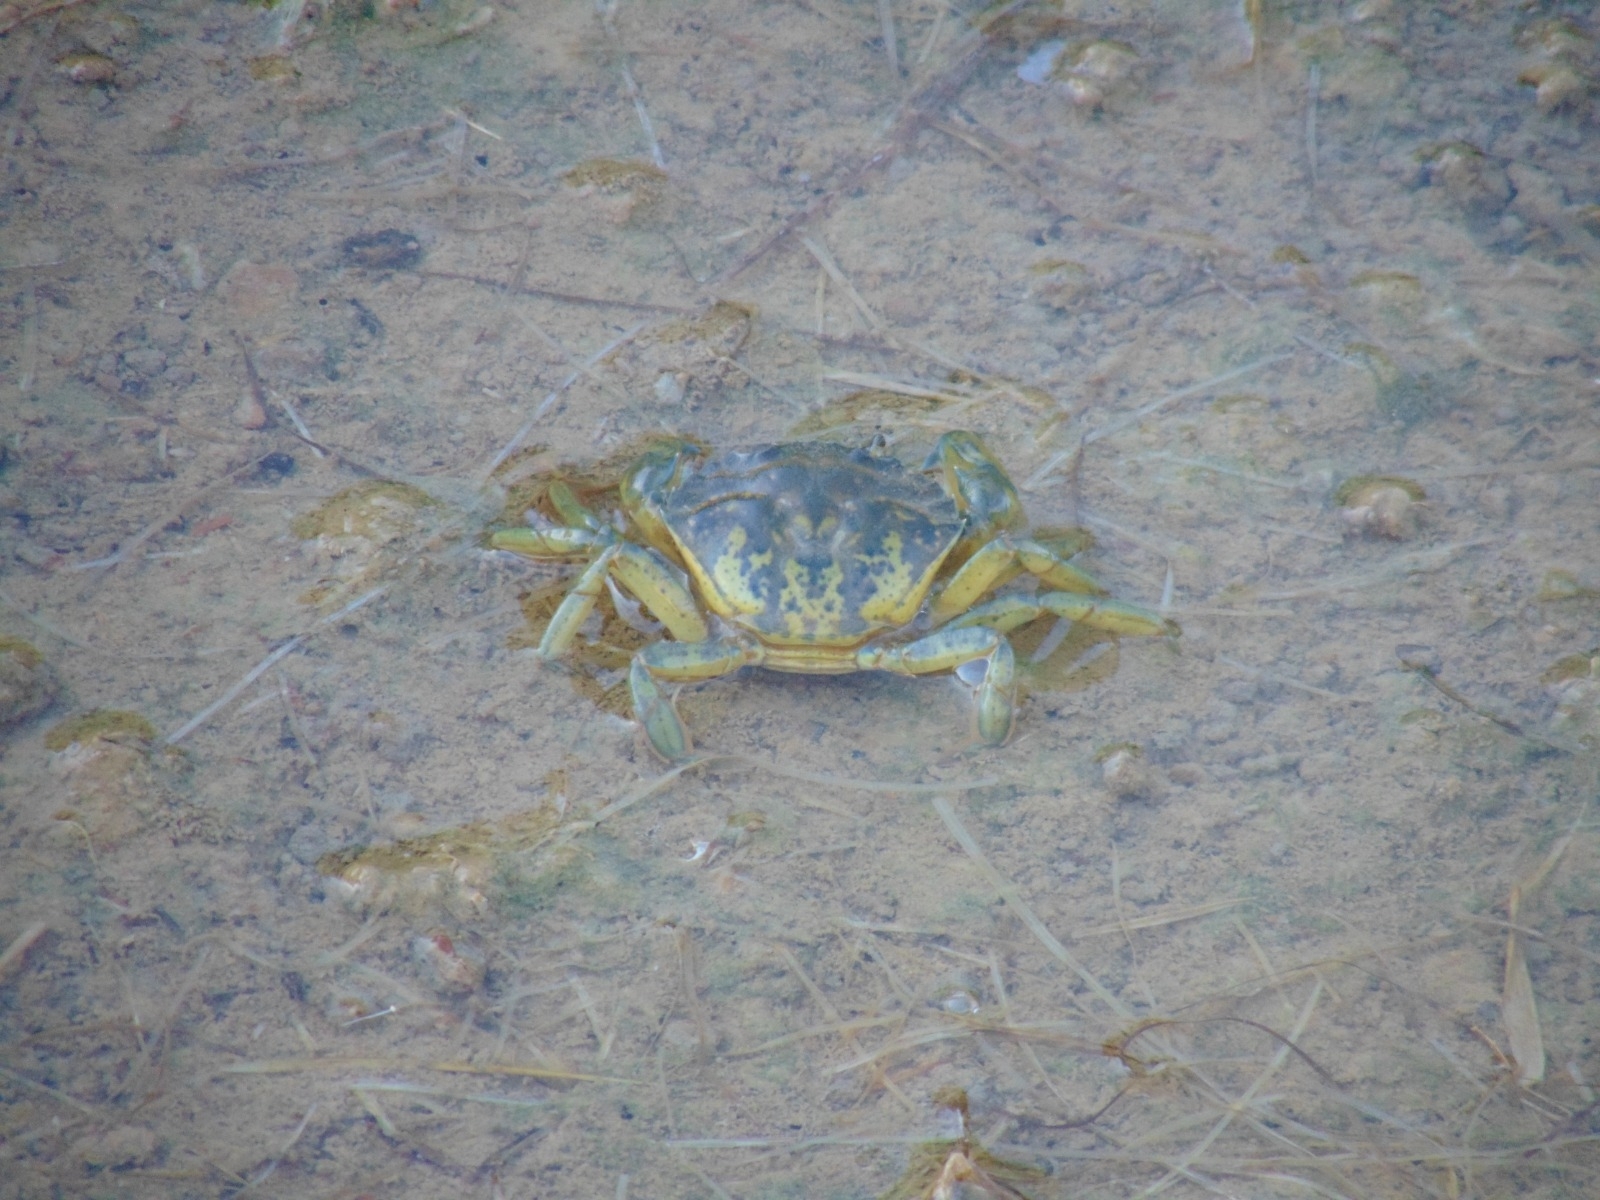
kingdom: Animalia
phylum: Arthropoda
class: Malacostraca
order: Decapoda
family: Carcinidae
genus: Carcinus
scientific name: Carcinus maenas
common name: European green crab
